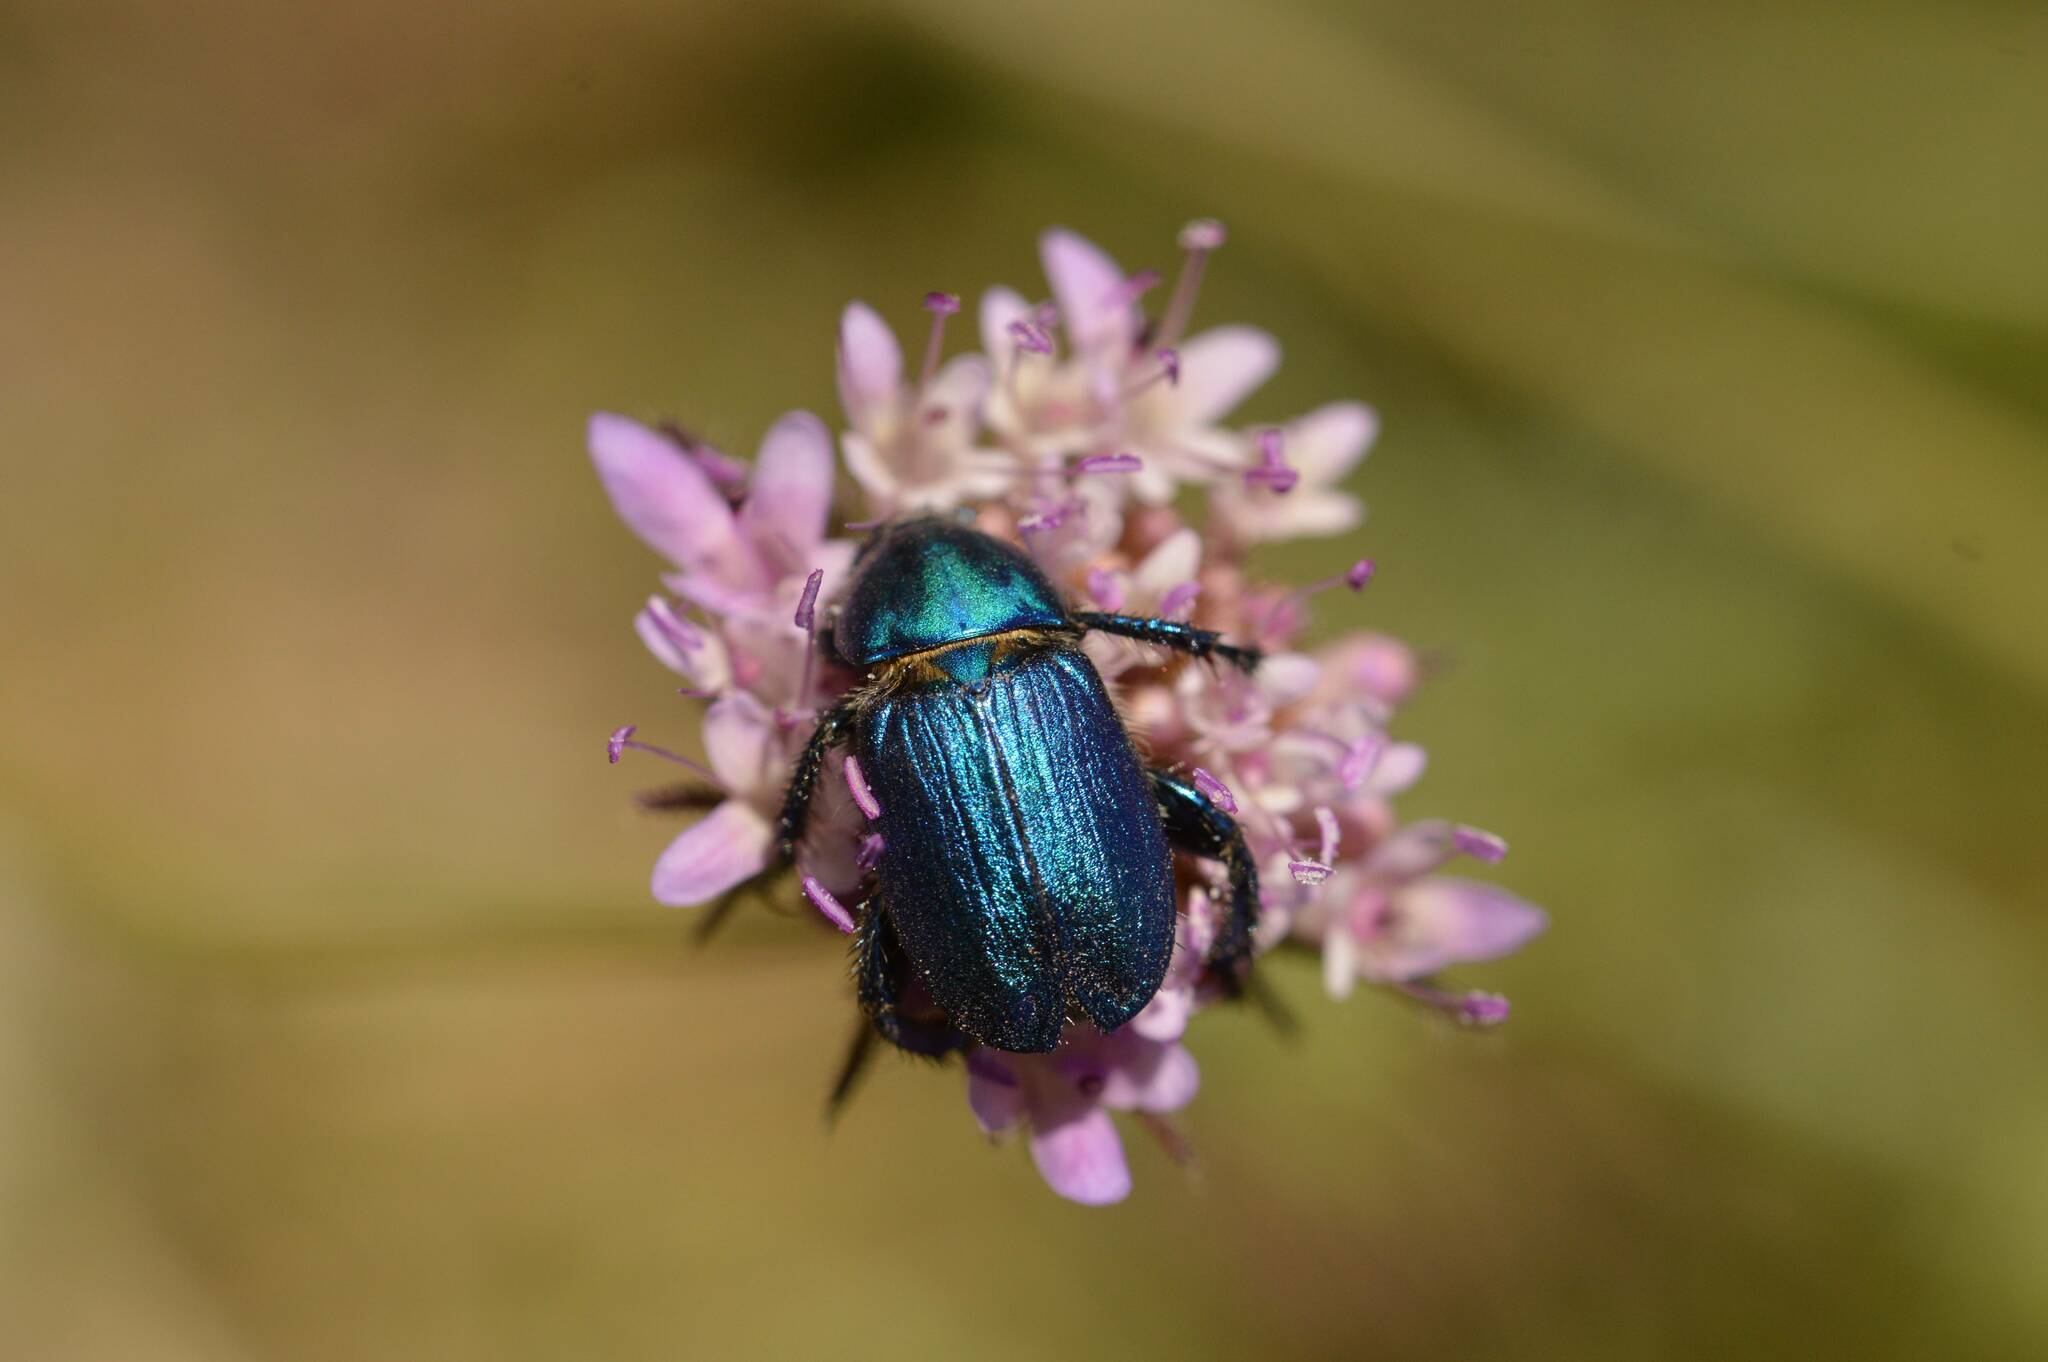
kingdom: Animalia
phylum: Arthropoda
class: Insecta
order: Coleoptera
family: Glaphyridae
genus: Glaphyrus
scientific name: Glaphyrus maurus
